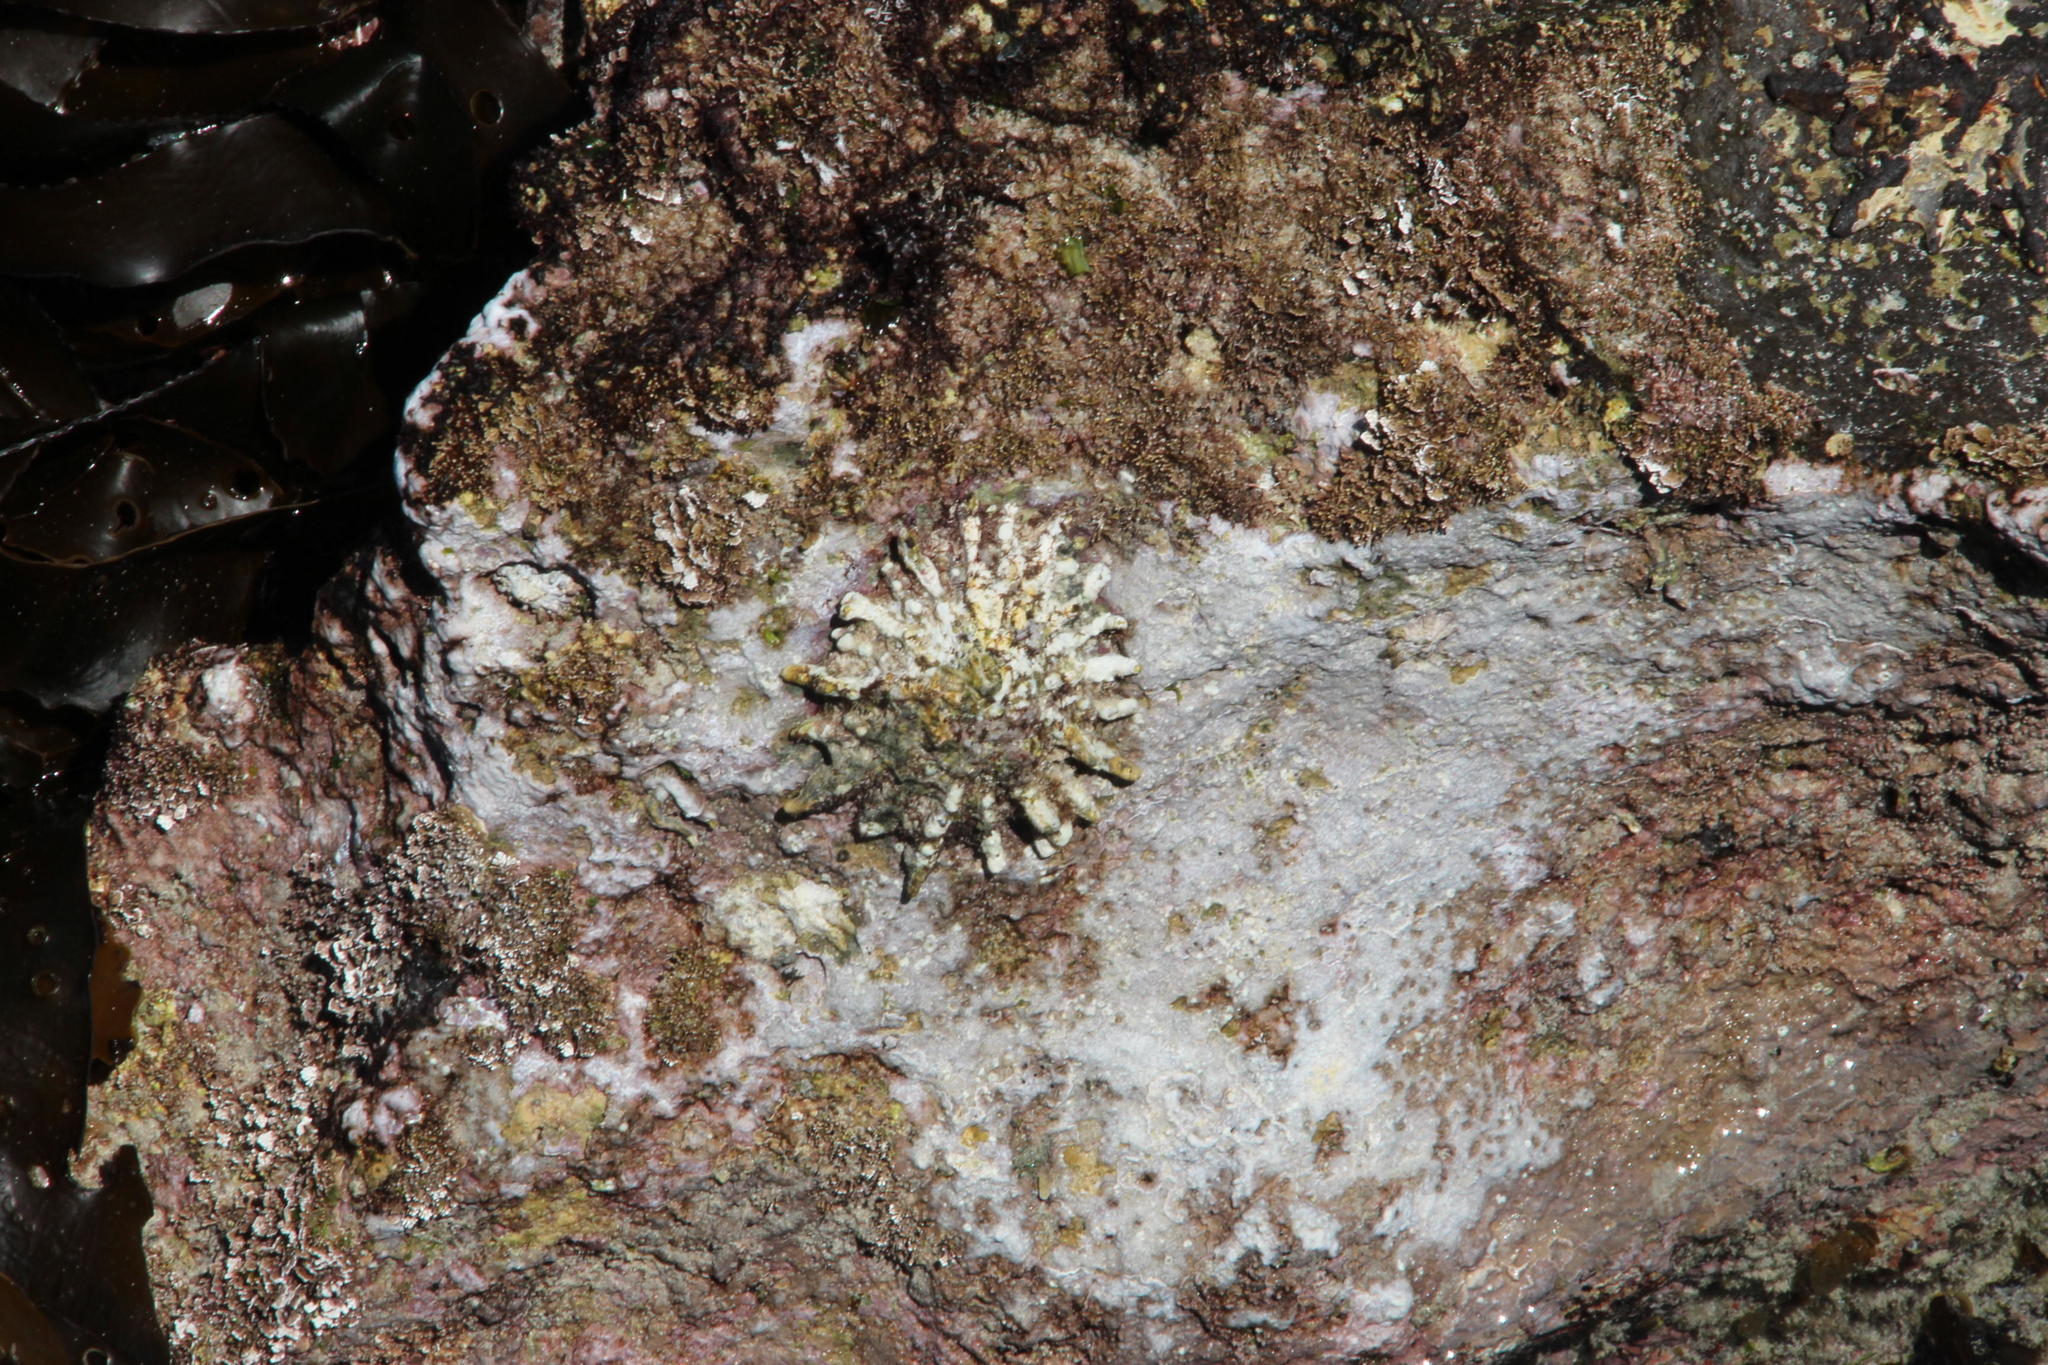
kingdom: Animalia
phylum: Mollusca
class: Gastropoda
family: Patellidae
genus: Scutellastra
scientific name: Scutellastra barbara
